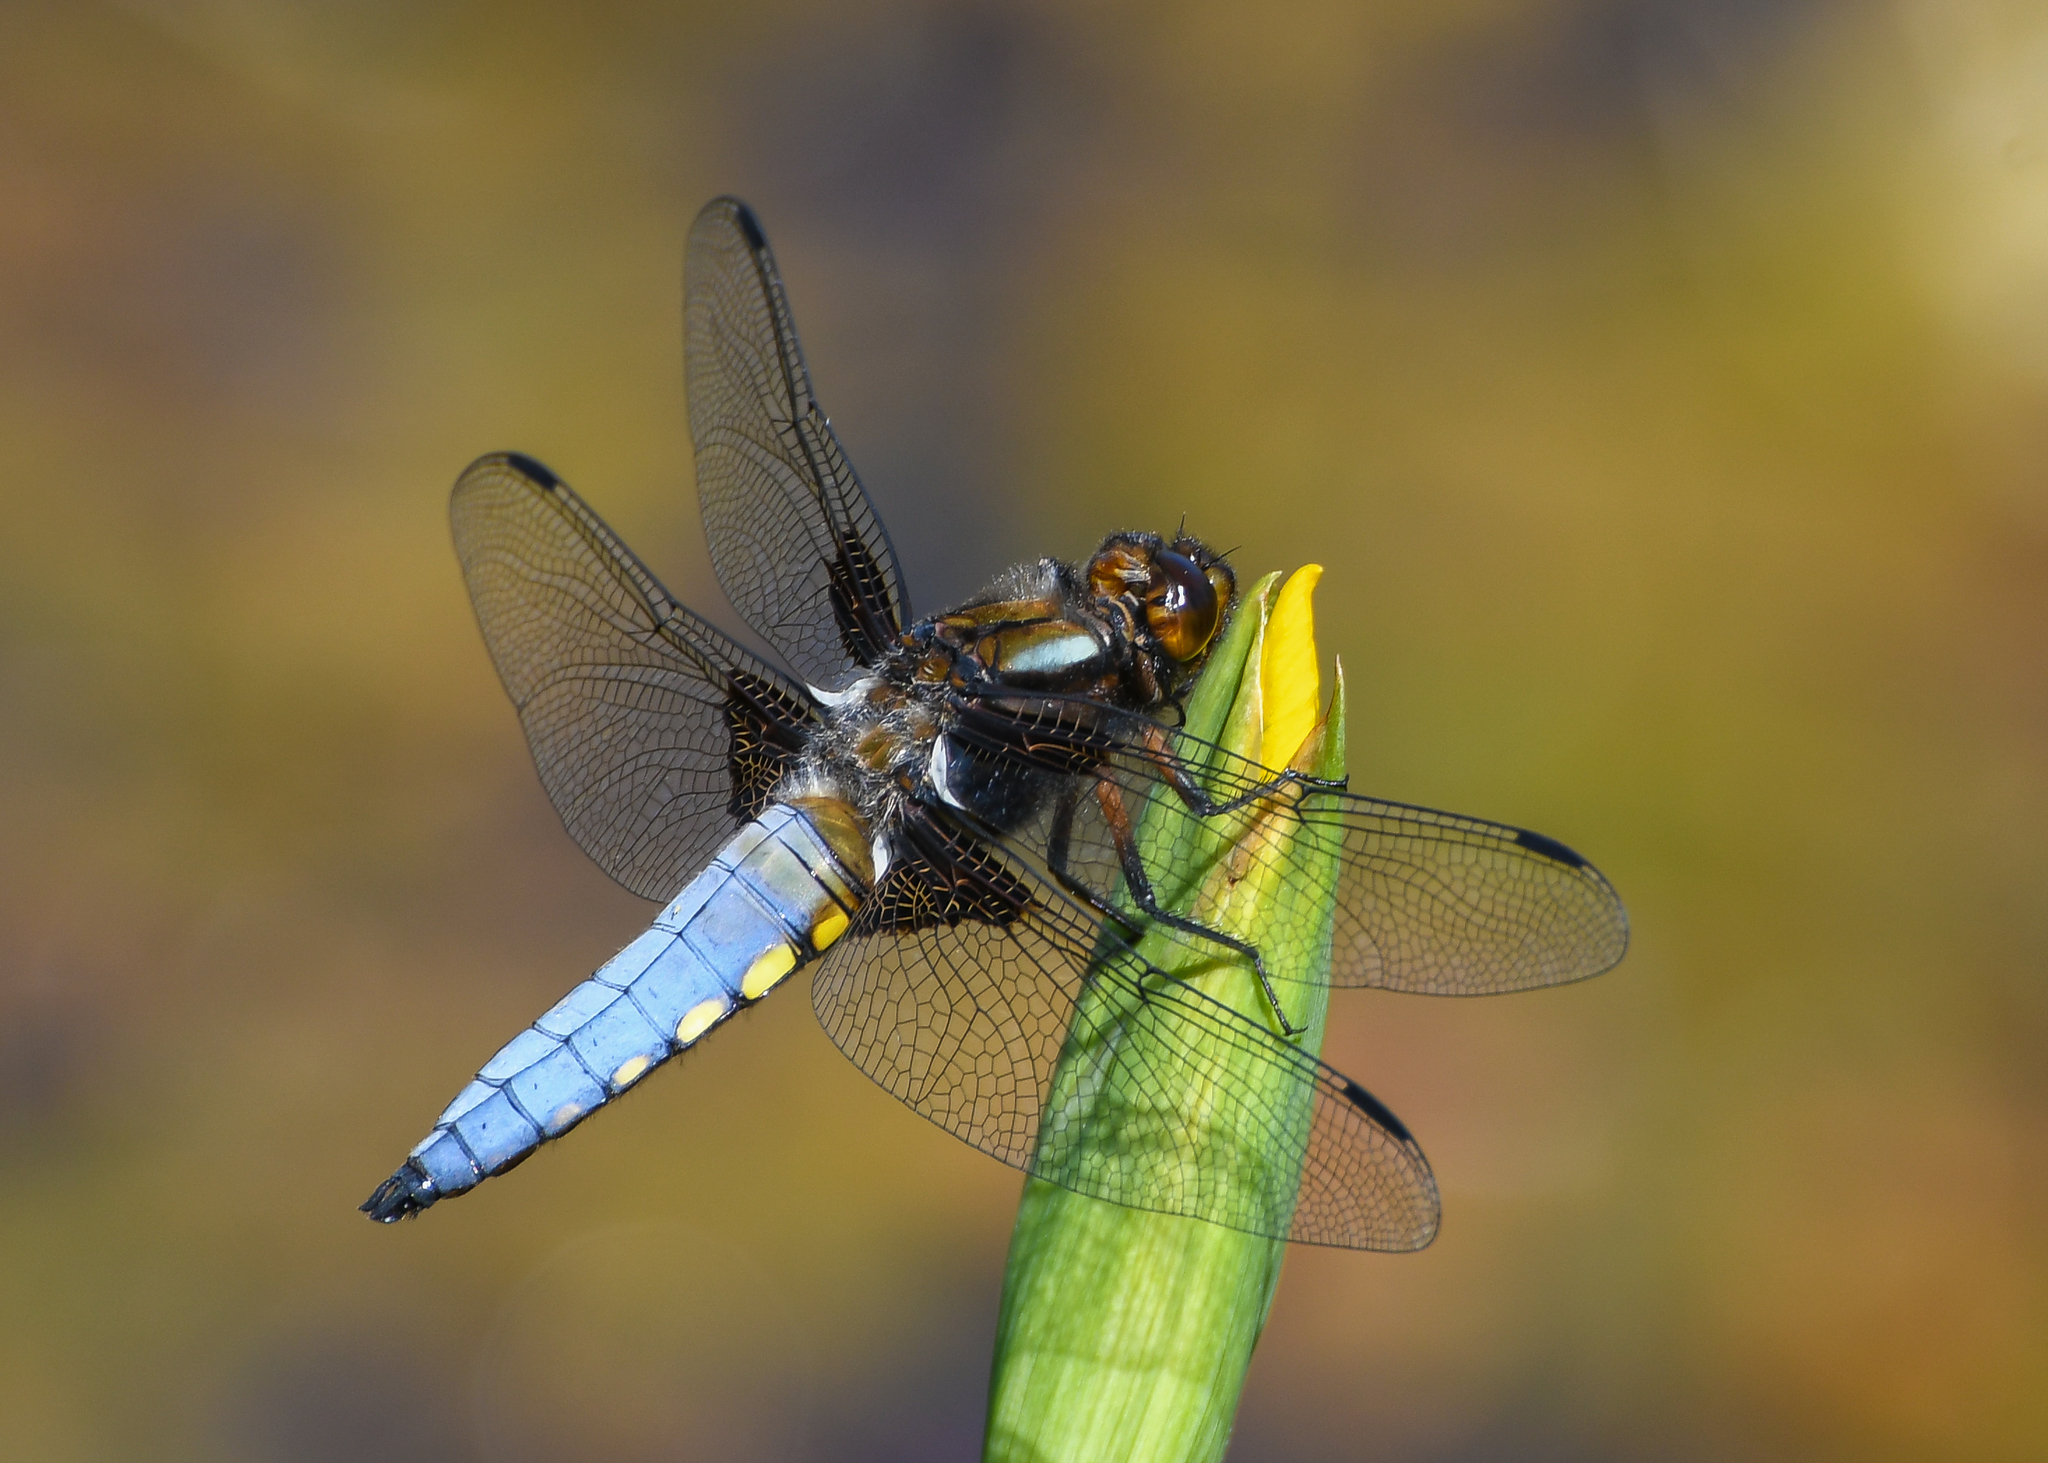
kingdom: Animalia
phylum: Arthropoda
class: Insecta
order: Odonata
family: Libellulidae
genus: Libellula
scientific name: Libellula depressa
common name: Broad-bodied chaser
